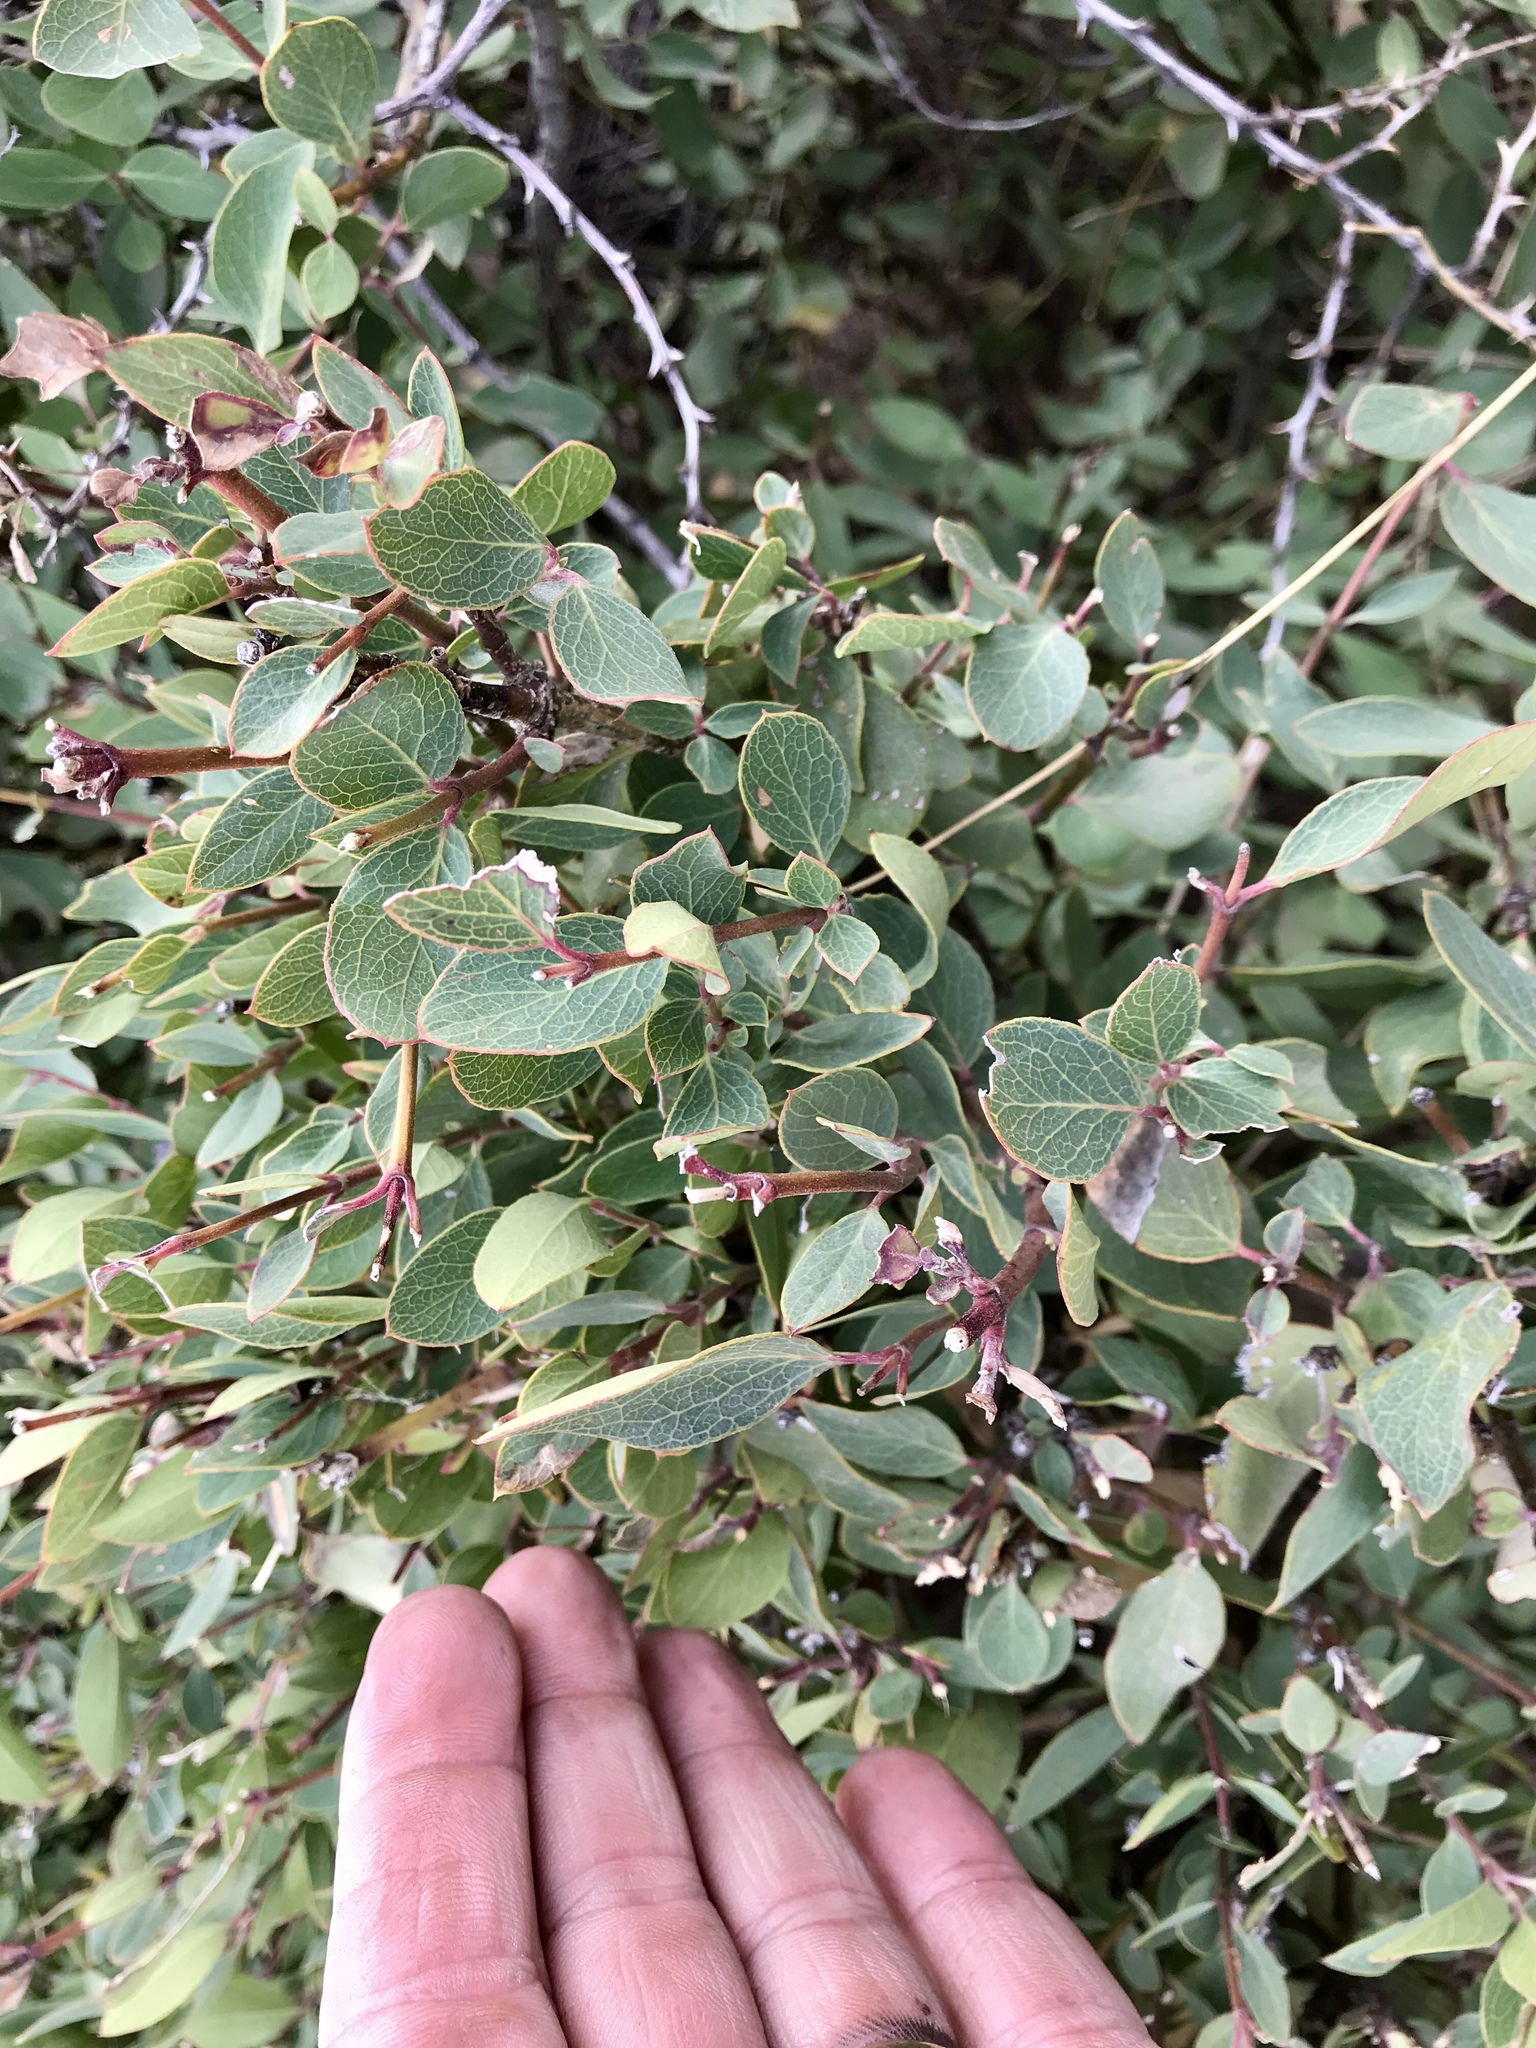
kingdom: Plantae
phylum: Tracheophyta
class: Magnoliopsida
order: Garryales
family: Garryaceae
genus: Garrya
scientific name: Garrya wrightii
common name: Wright's silktassel
